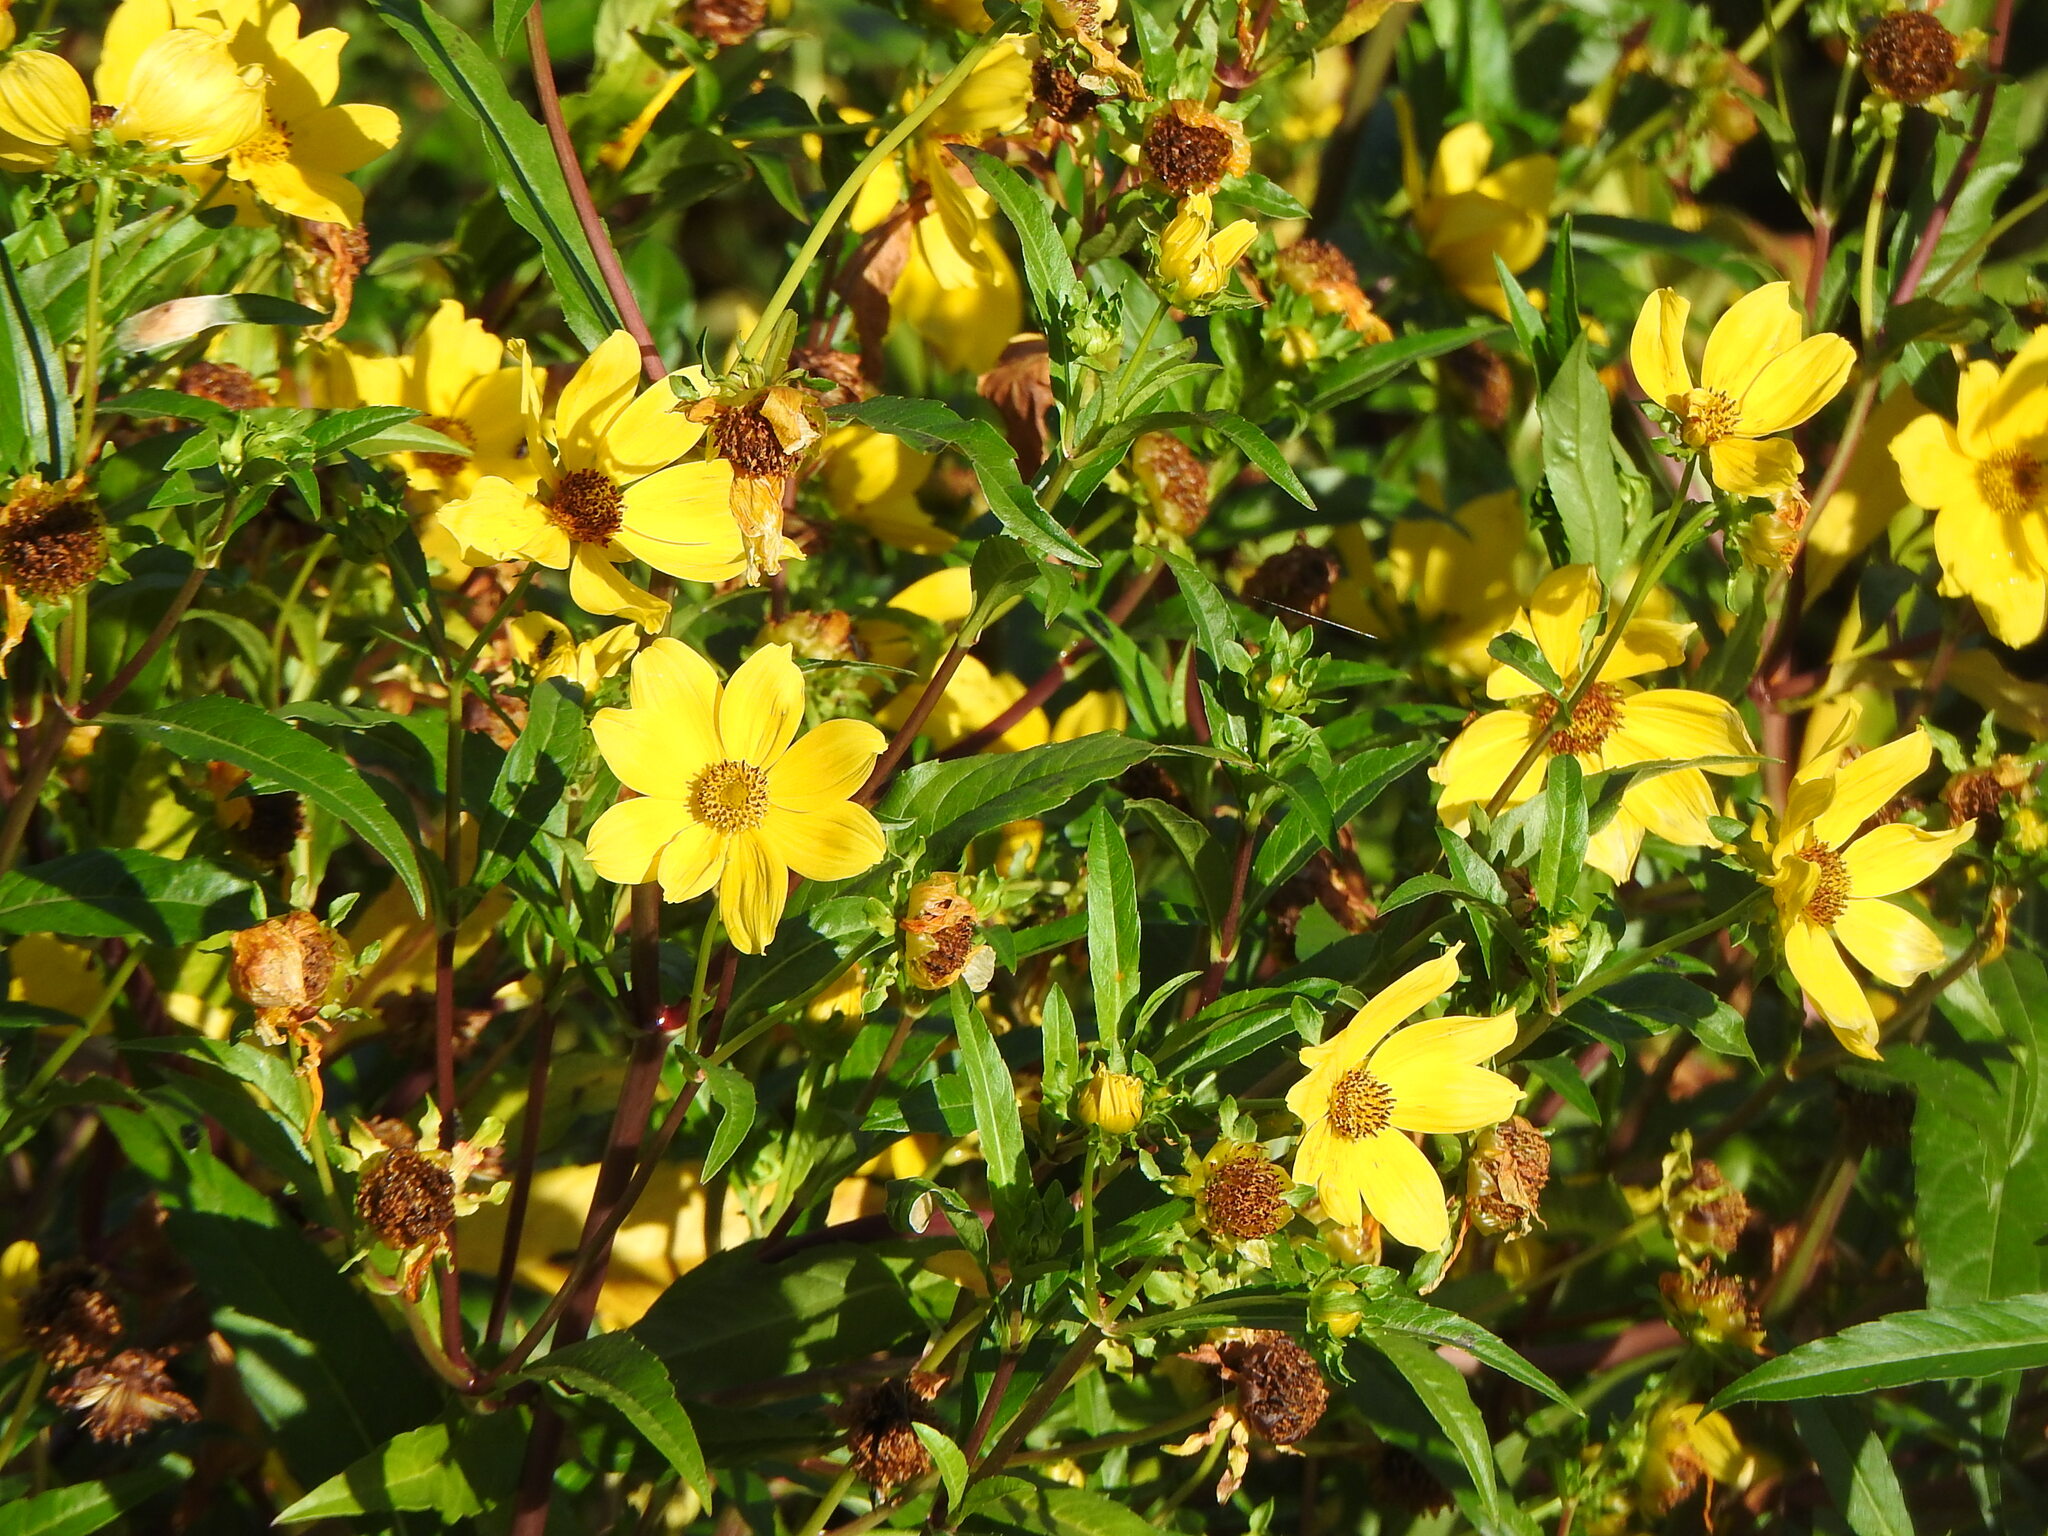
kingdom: Plantae
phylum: Tracheophyta
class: Magnoliopsida
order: Asterales
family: Asteraceae
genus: Bidens
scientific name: Bidens laevis
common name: Larger bur-marigold
